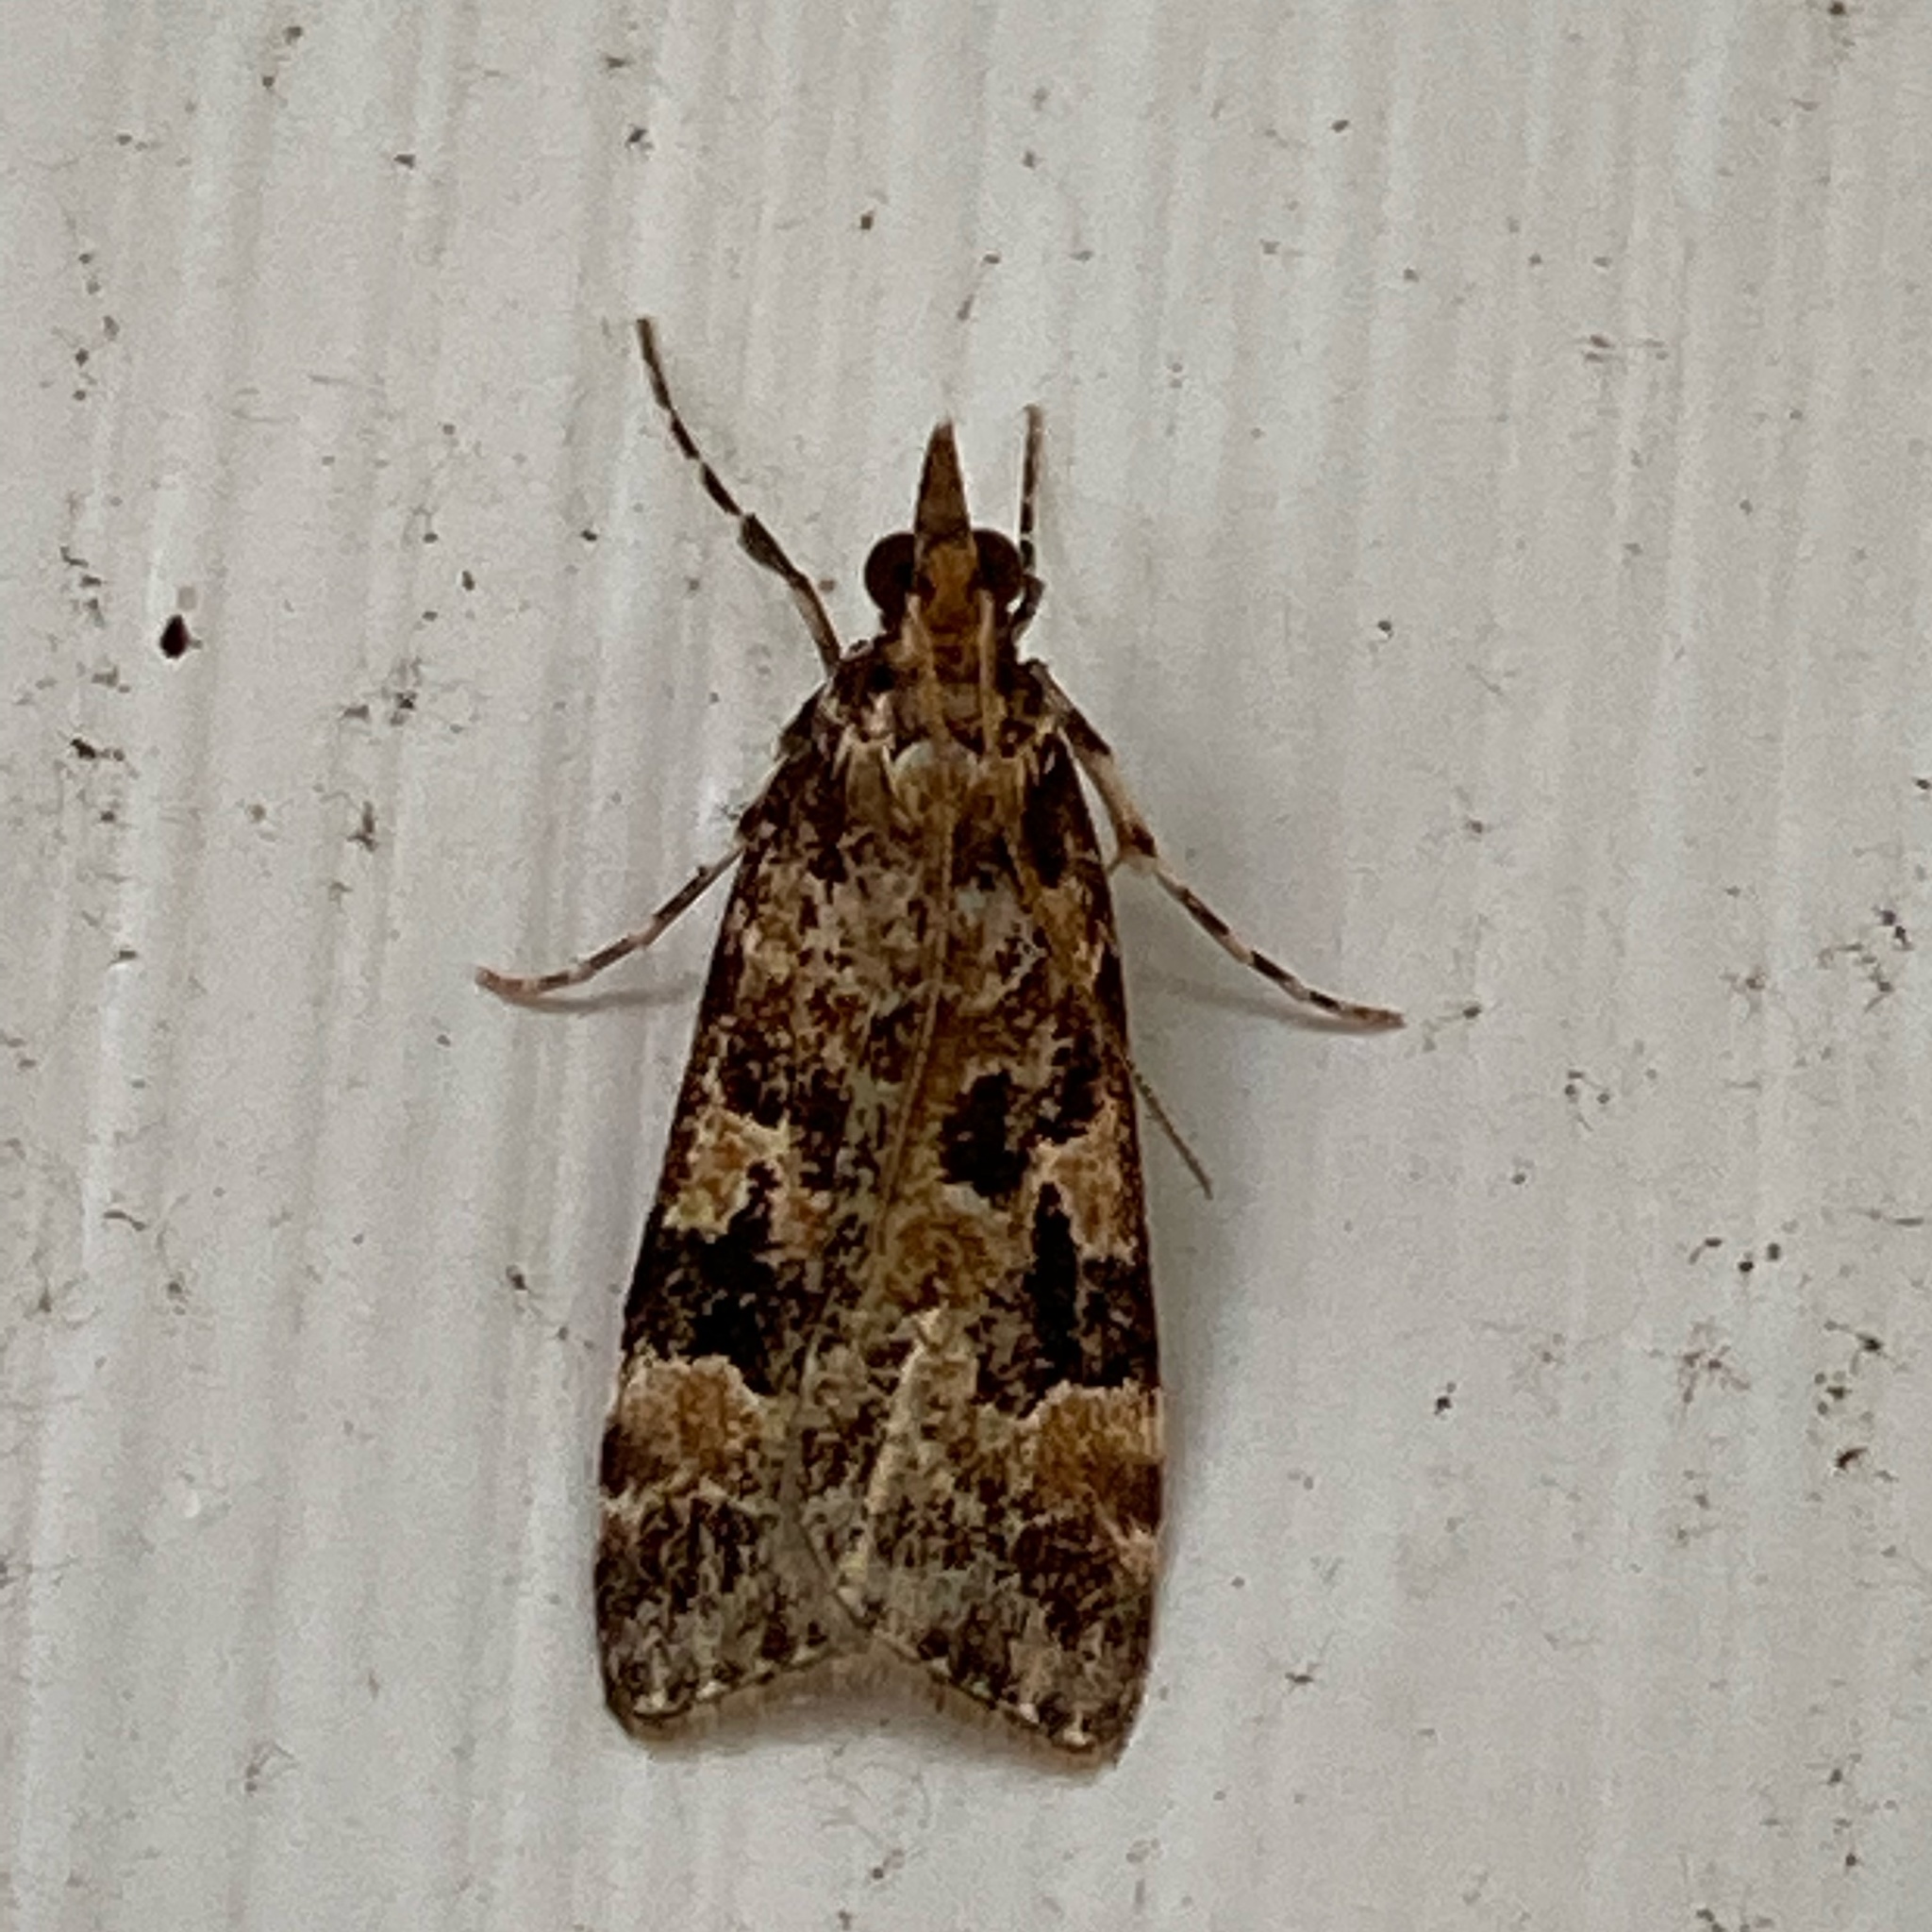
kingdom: Animalia
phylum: Arthropoda
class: Insecta
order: Lepidoptera
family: Crambidae
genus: Scoparia
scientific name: Scoparia ustimacula
